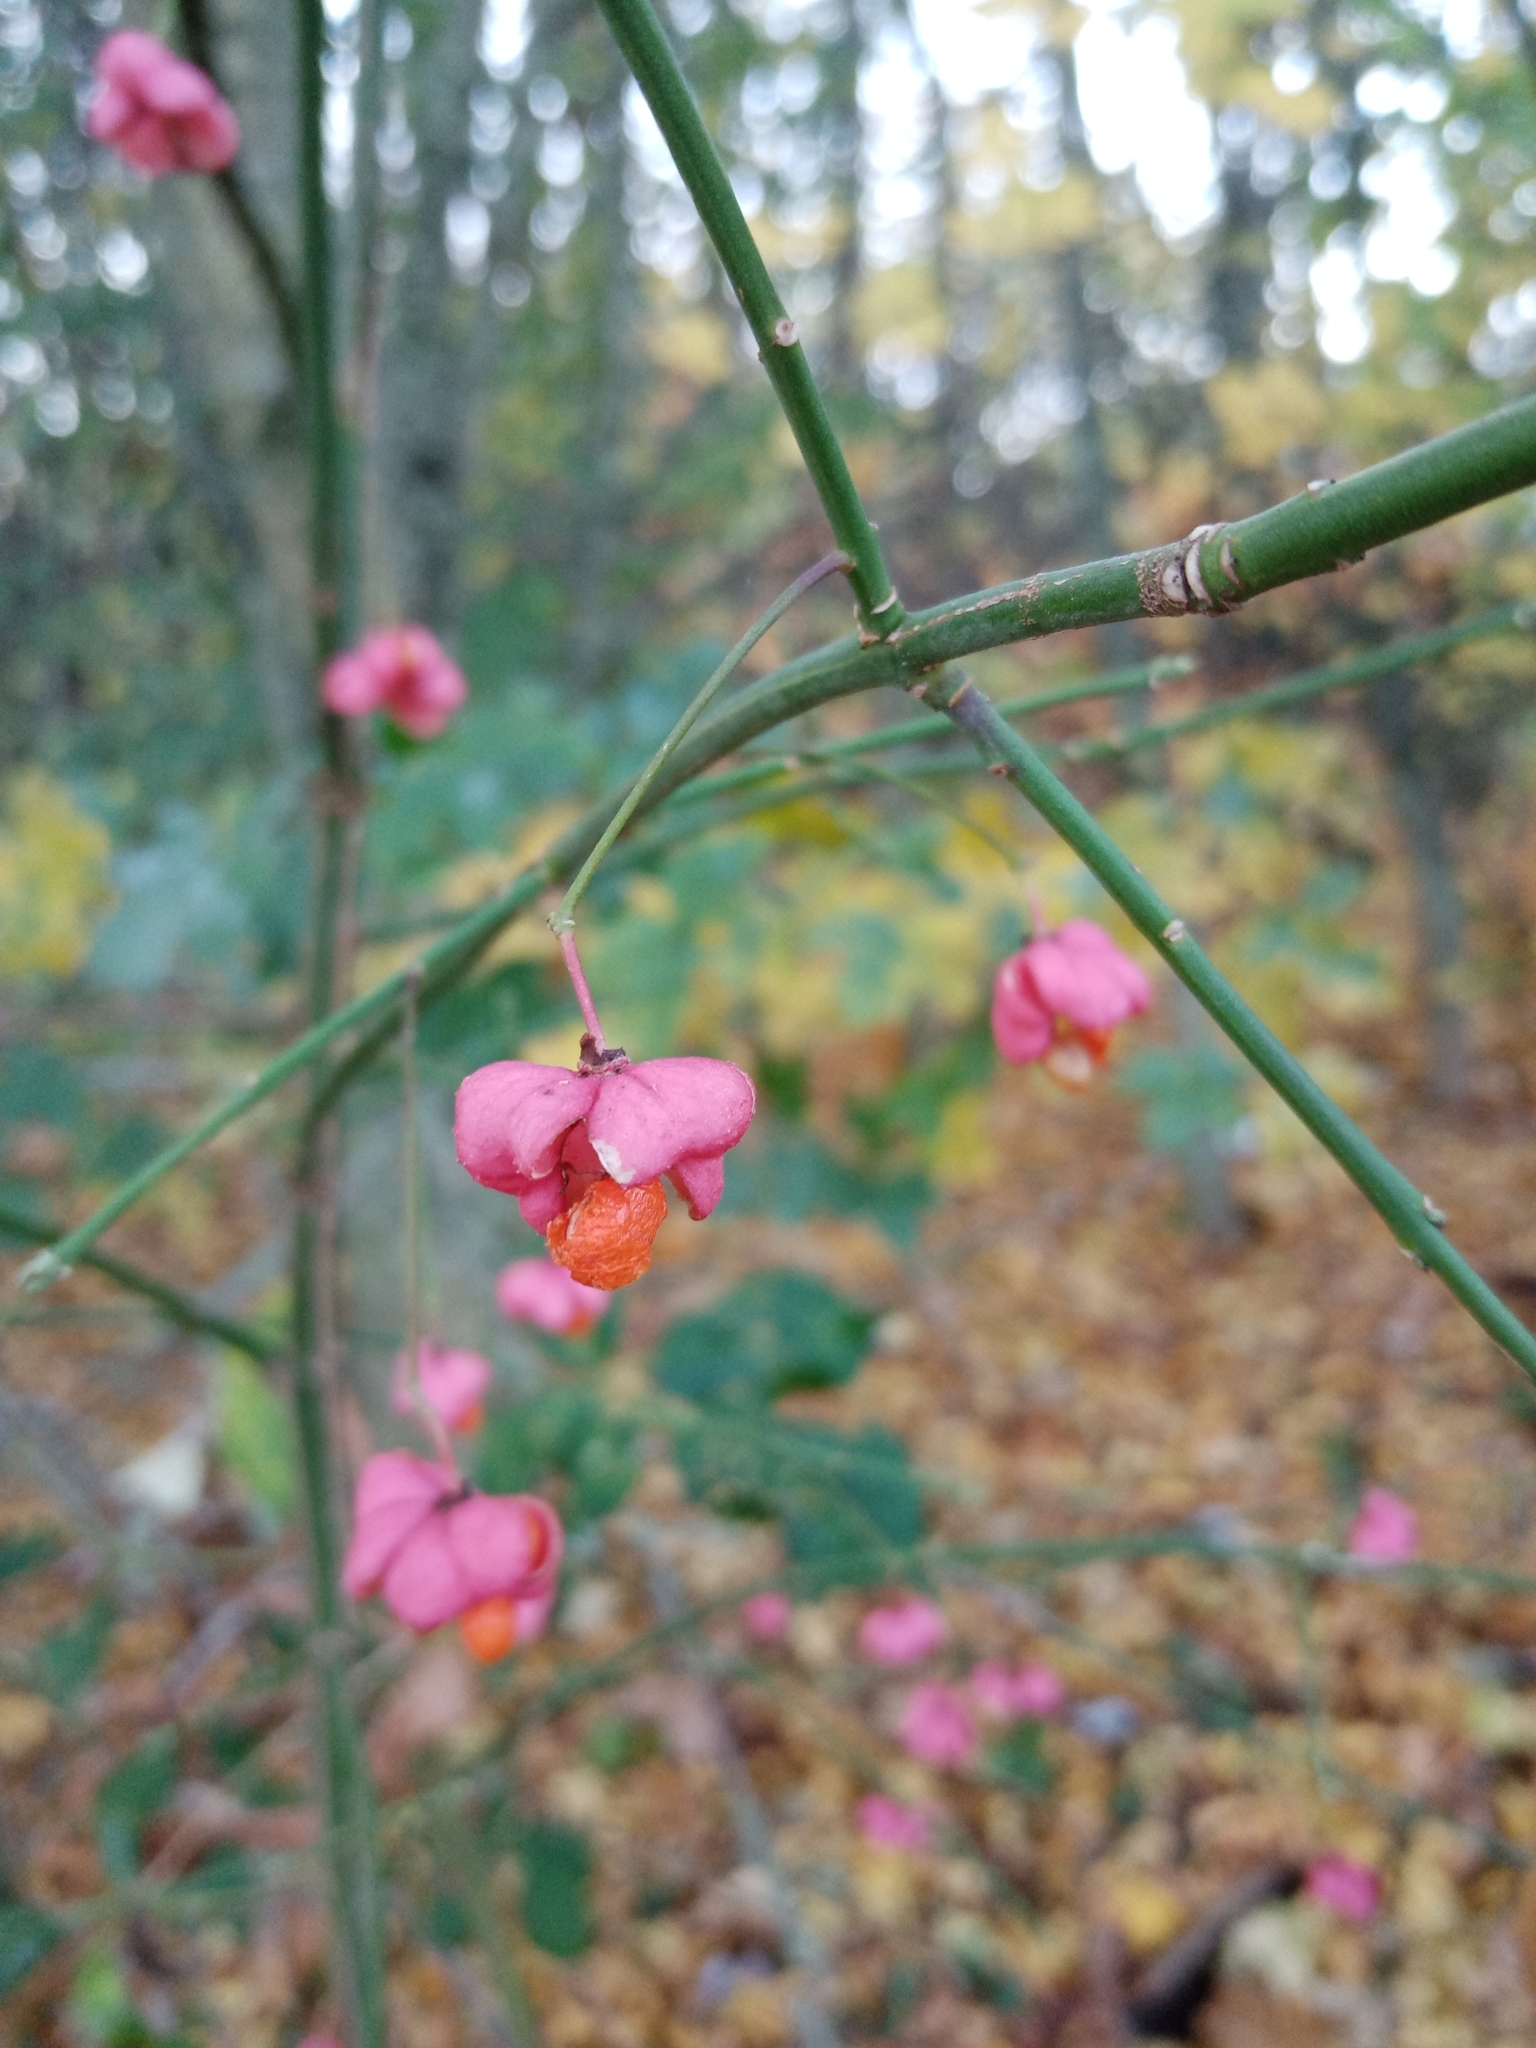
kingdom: Plantae
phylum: Tracheophyta
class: Magnoliopsida
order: Celastrales
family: Celastraceae
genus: Euonymus
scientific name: Euonymus europaeus
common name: Spindle
